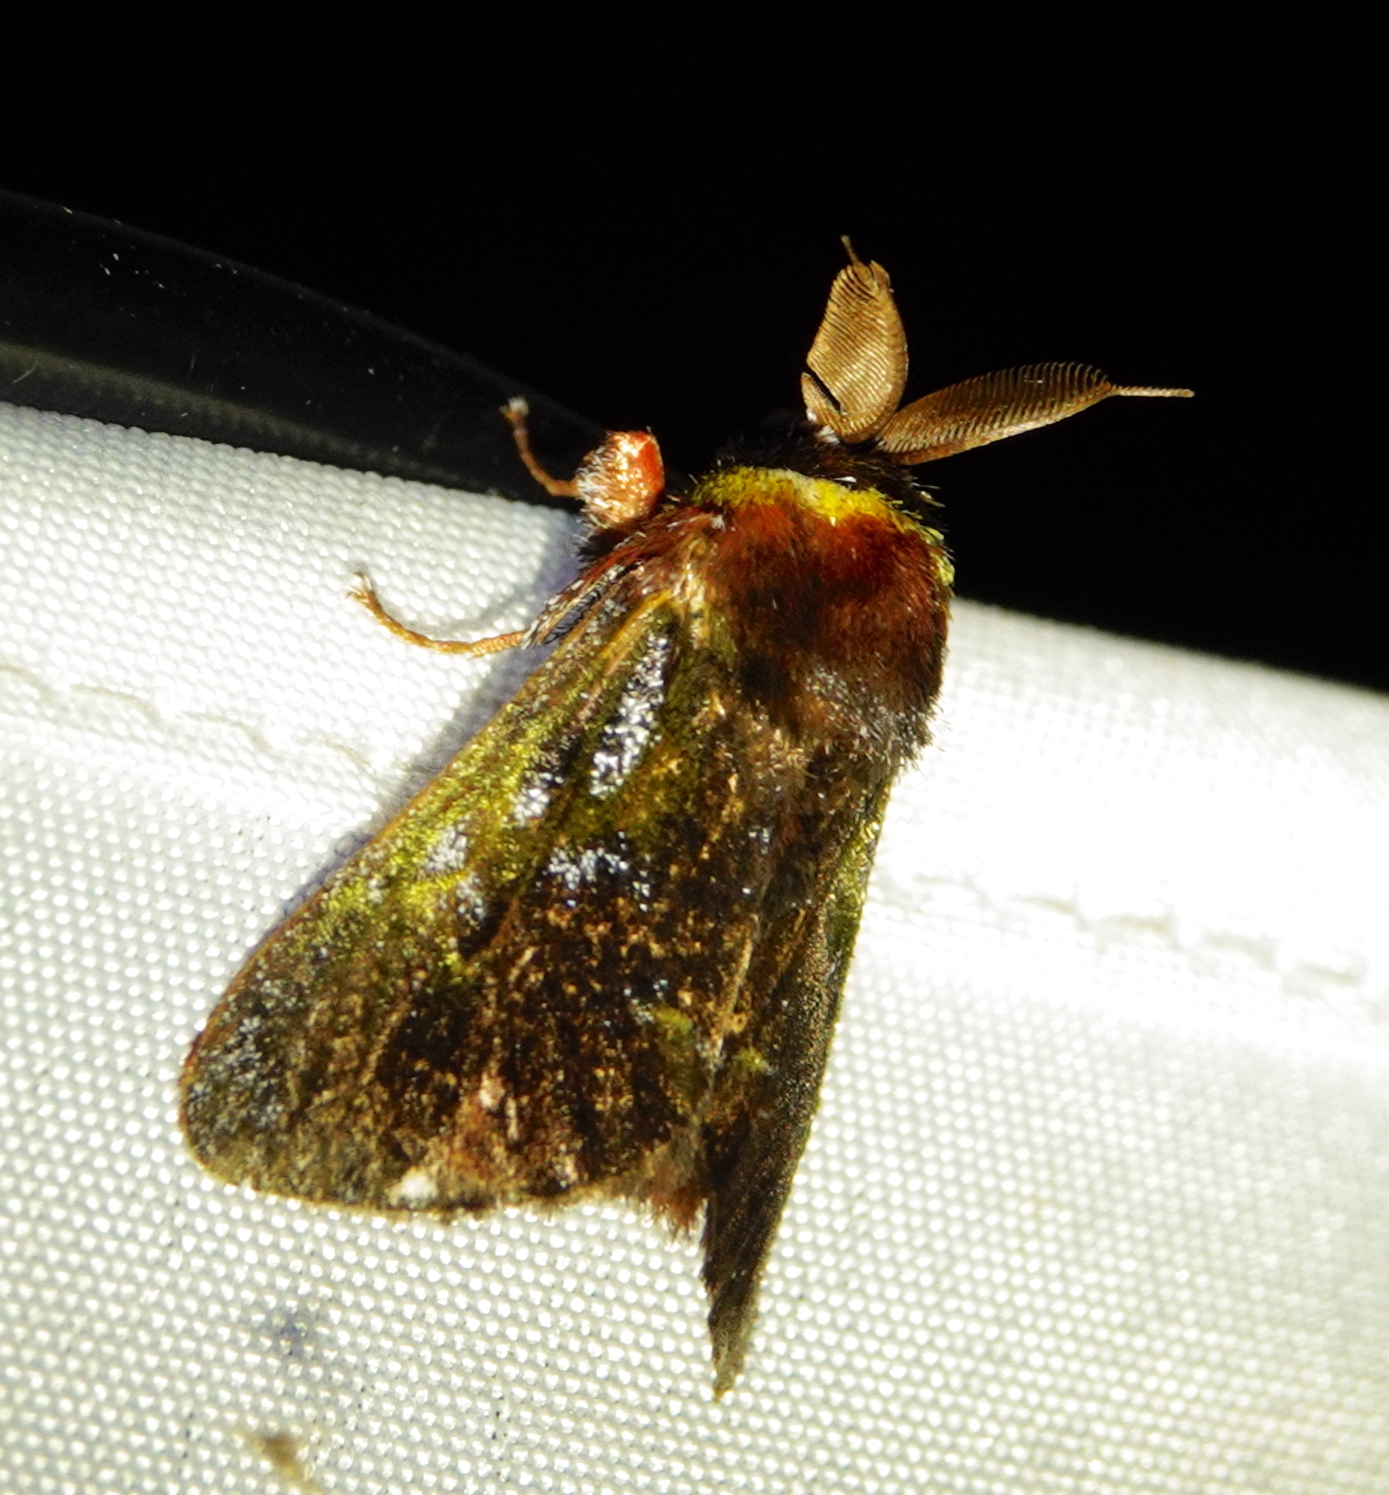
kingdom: Animalia
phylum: Arthropoda
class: Insecta
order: Lepidoptera
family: Aididae
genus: Aidos
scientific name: Aidos yamouna
